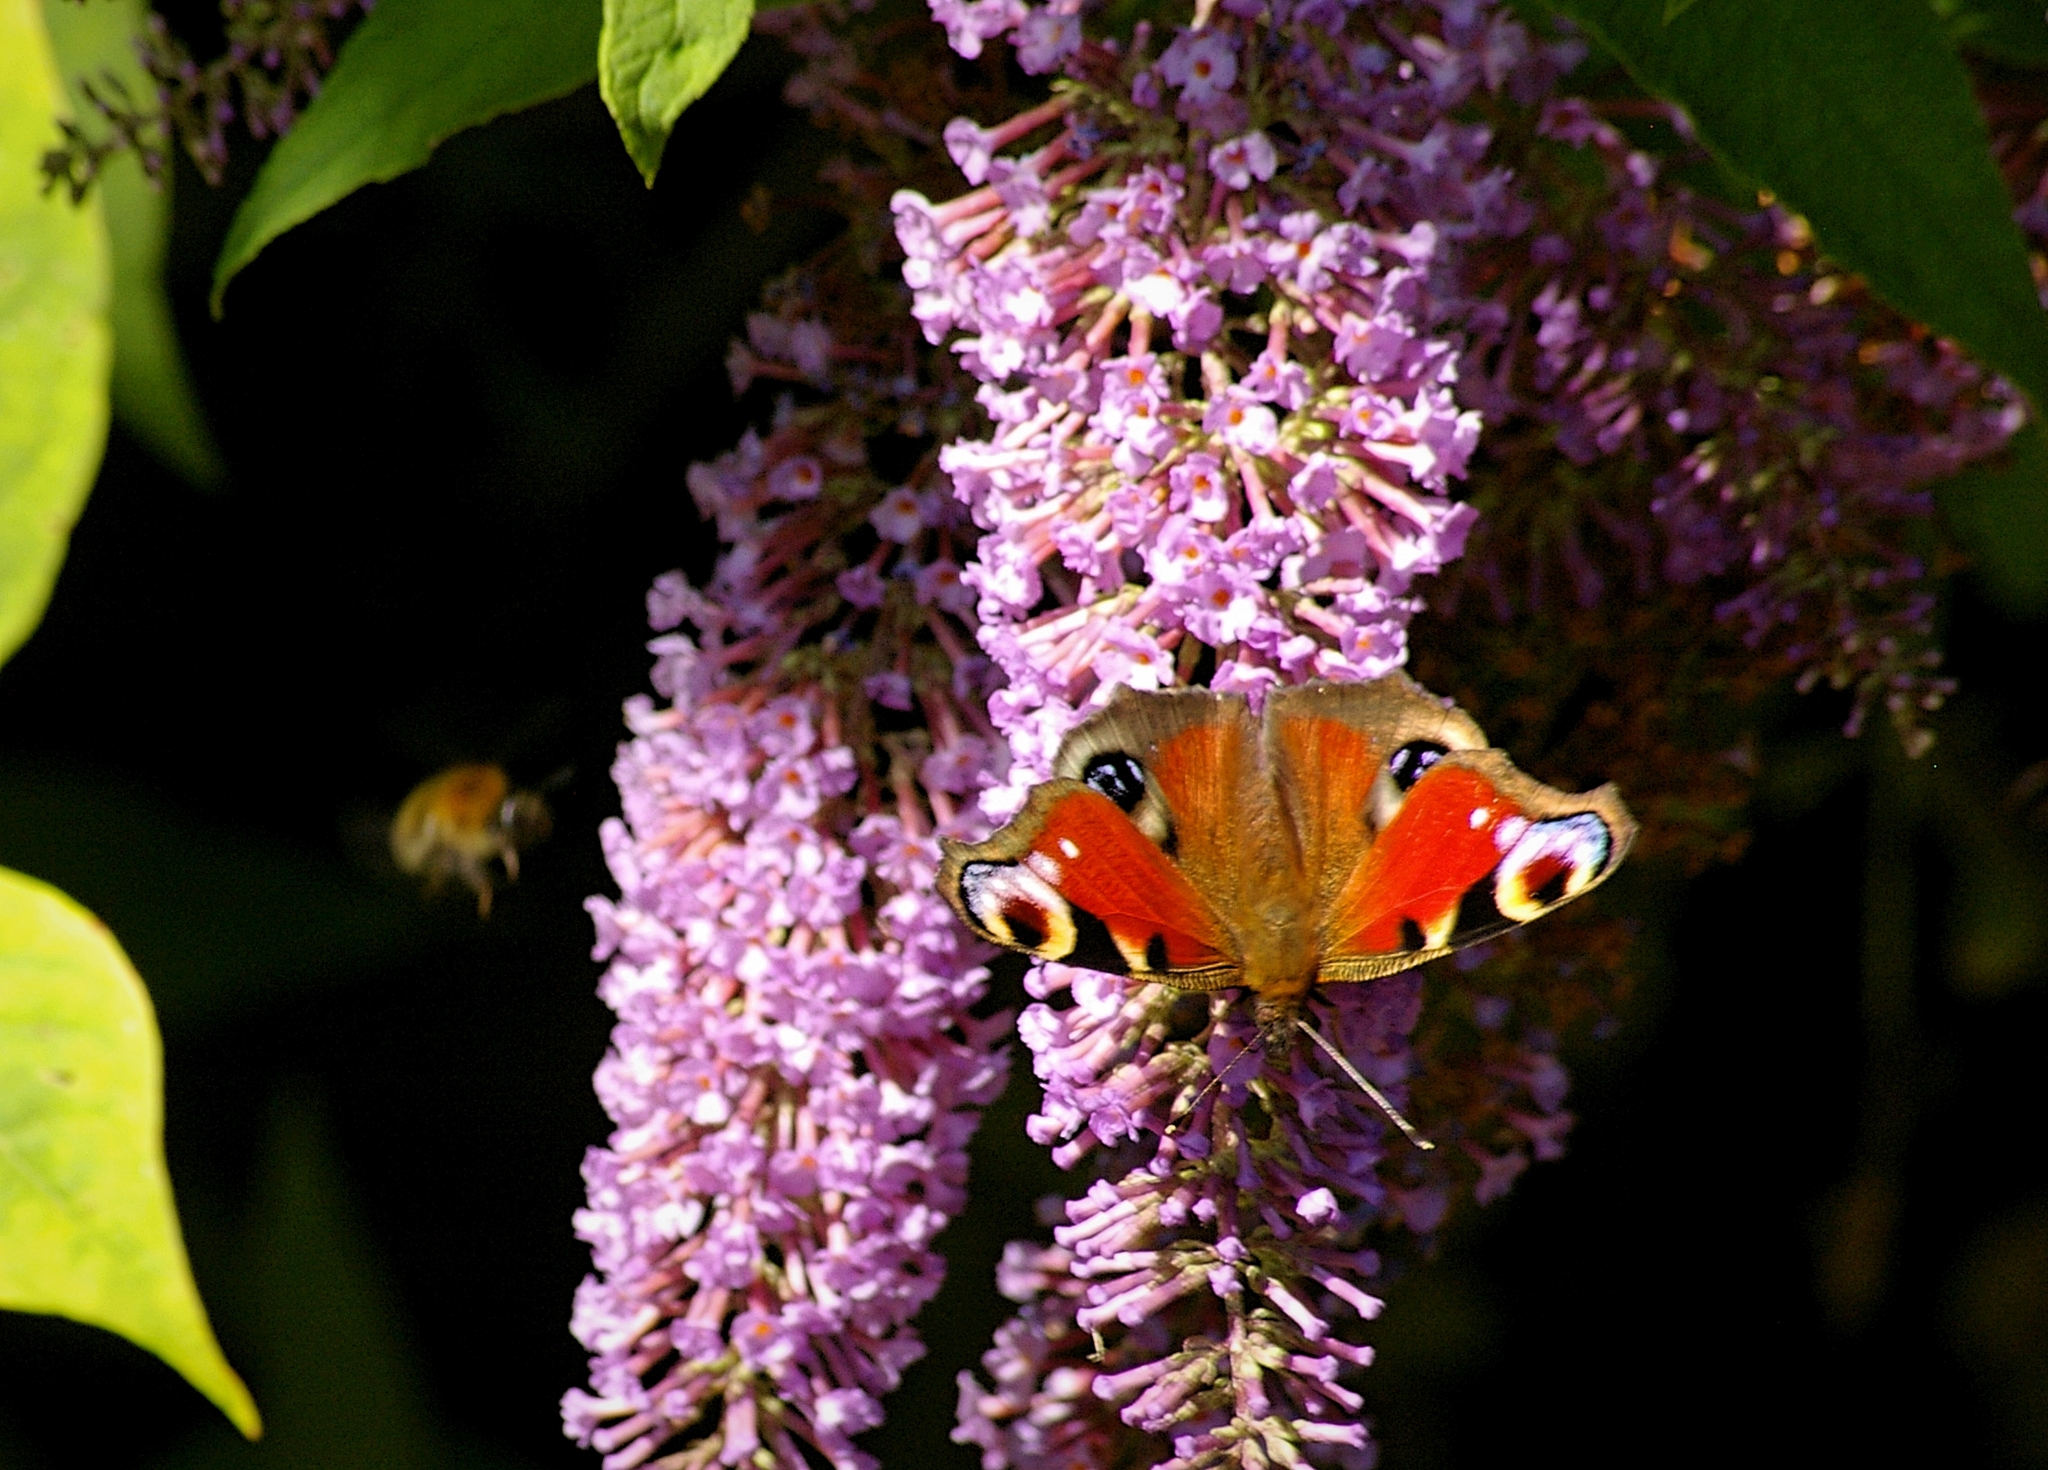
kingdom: Animalia
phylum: Arthropoda
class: Insecta
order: Lepidoptera
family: Nymphalidae
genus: Aglais
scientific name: Aglais io
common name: Peacock
